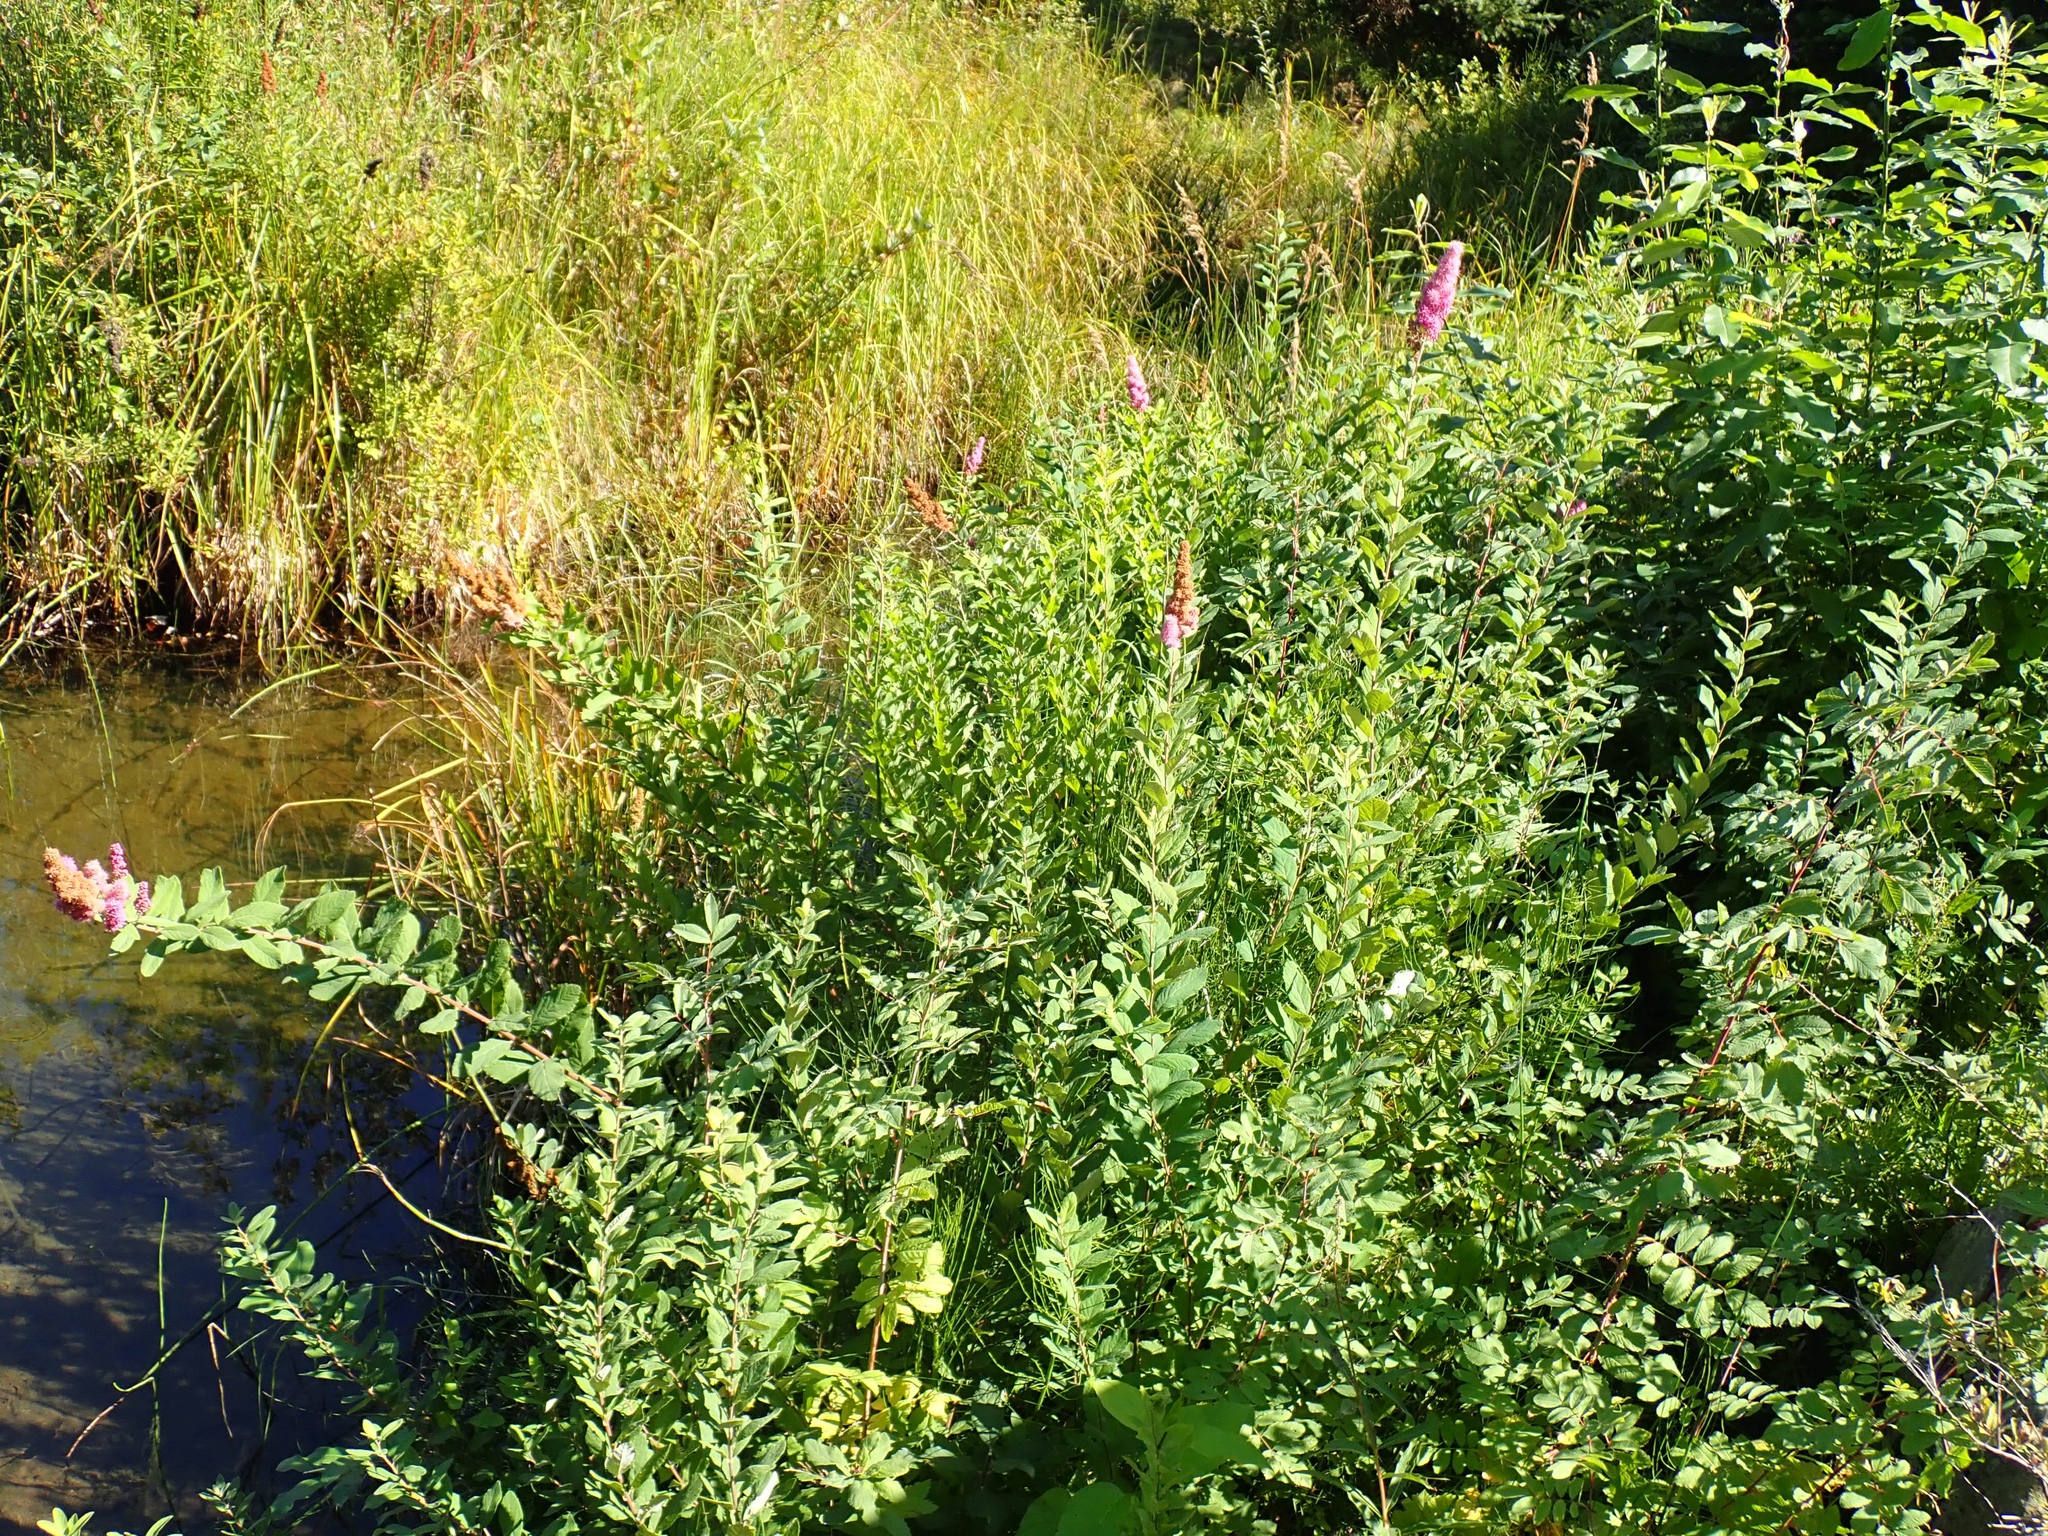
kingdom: Plantae
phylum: Tracheophyta
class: Magnoliopsida
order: Rosales
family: Rosaceae
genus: Spiraea
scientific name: Spiraea douglasii
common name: Steeplebush
